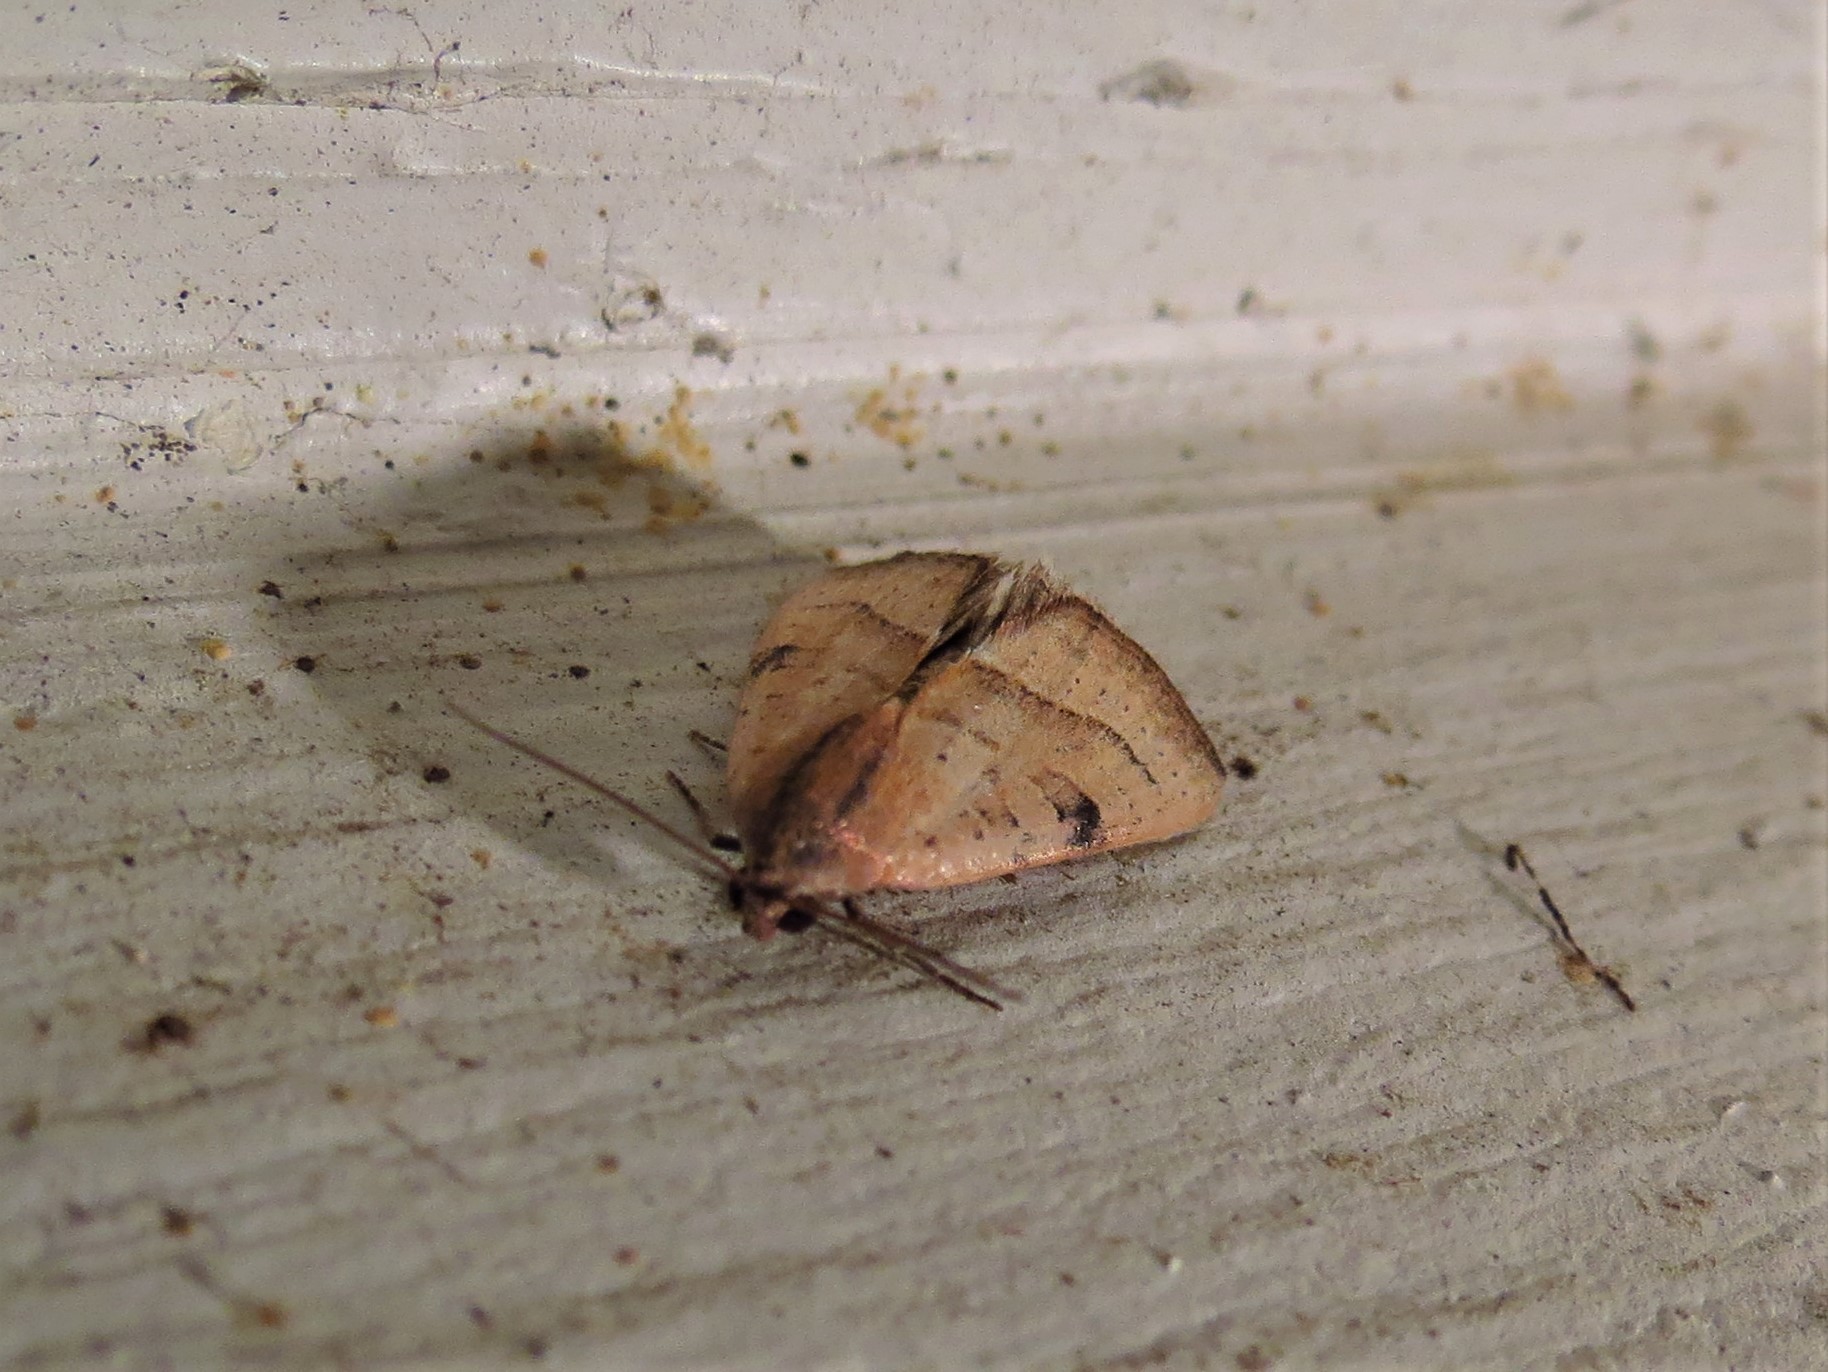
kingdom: Animalia
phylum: Arthropoda
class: Insecta
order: Lepidoptera
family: Noctuidae
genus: Galgula
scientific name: Galgula partita
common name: Wedgeling
